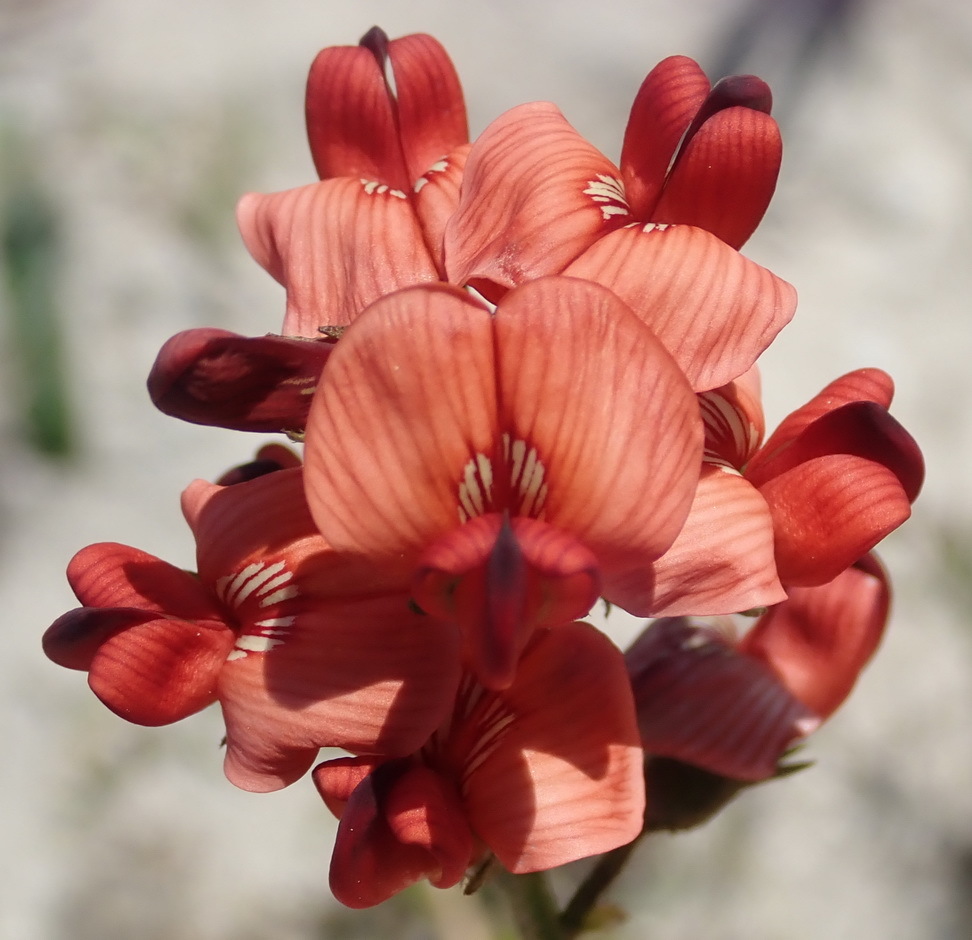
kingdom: Plantae
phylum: Tracheophyta
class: Magnoliopsida
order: Fabales
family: Fabaceae
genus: Lessertia
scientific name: Lessertia miniata
